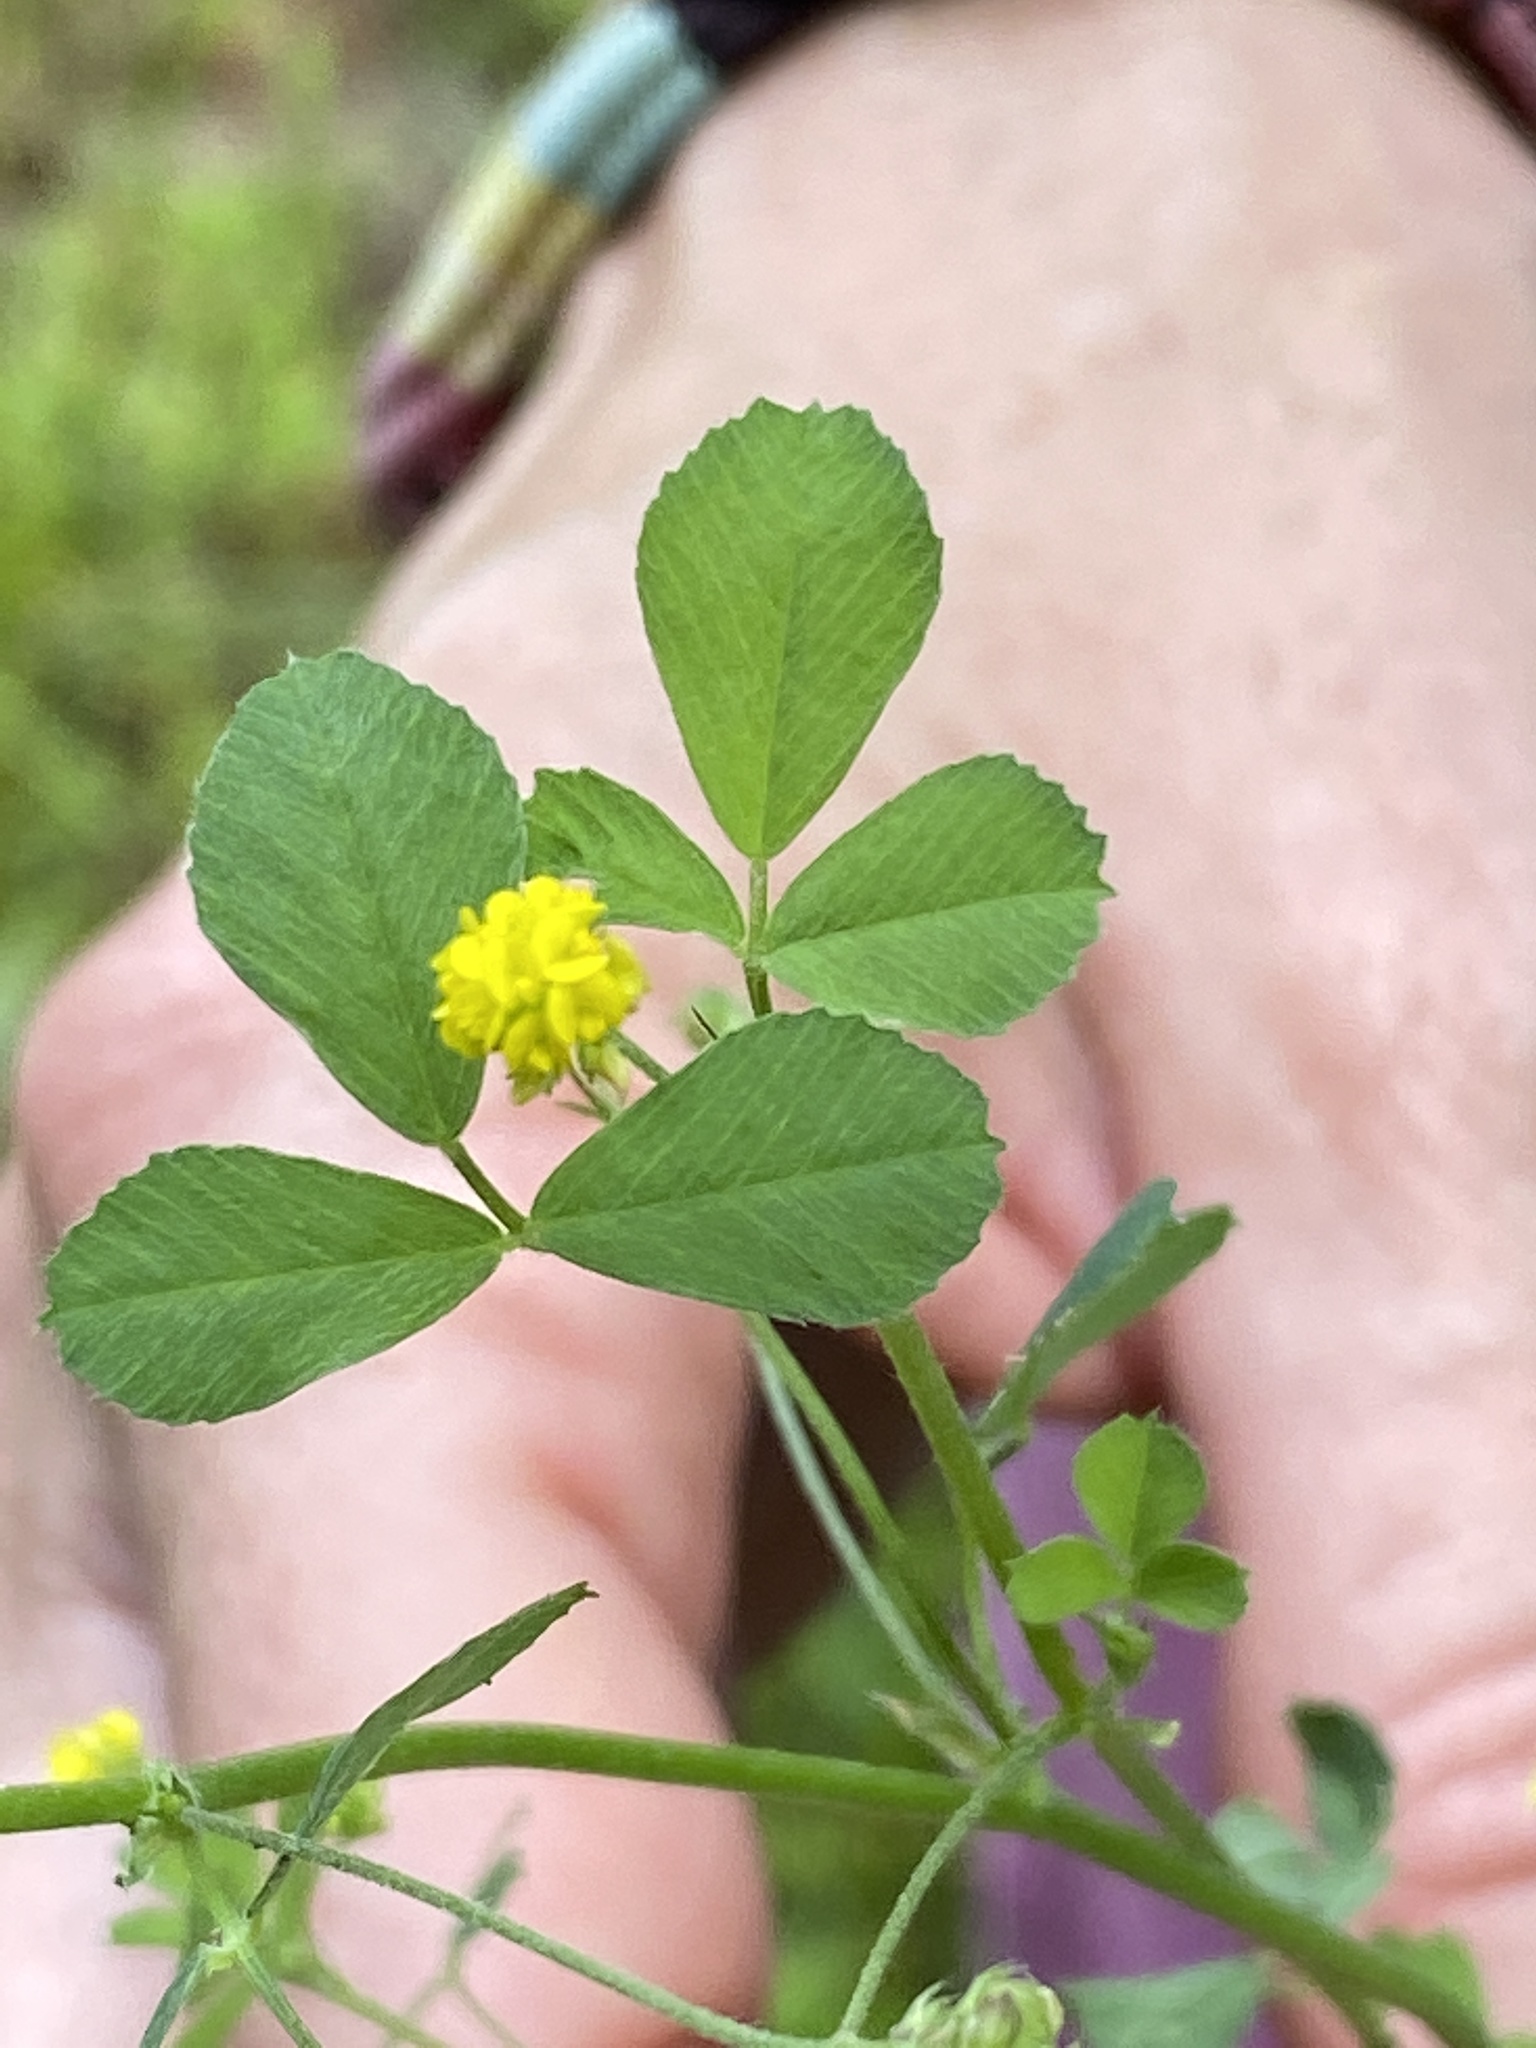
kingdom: Plantae
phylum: Tracheophyta
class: Magnoliopsida
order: Fabales
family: Fabaceae
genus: Trifolium
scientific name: Trifolium campestre
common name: Field clover
